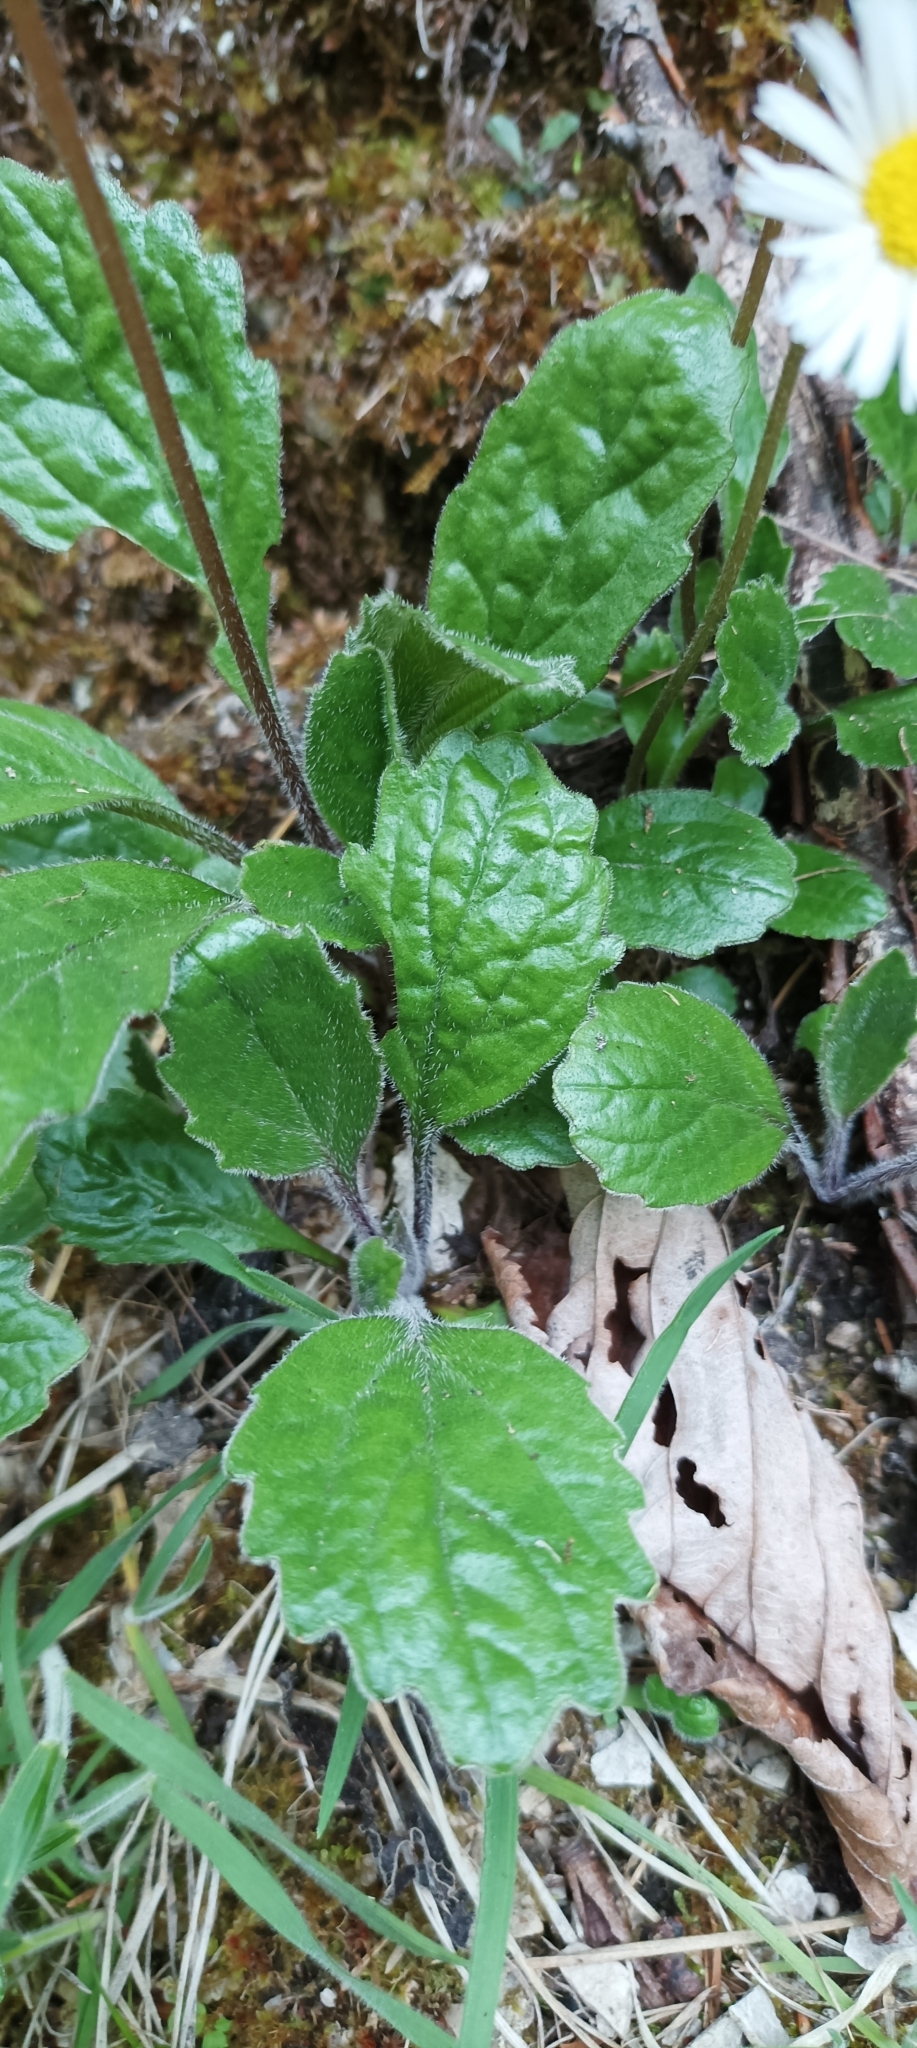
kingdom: Plantae
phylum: Tracheophyta
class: Magnoliopsida
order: Asterales
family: Asteraceae
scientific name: Asteraceae
